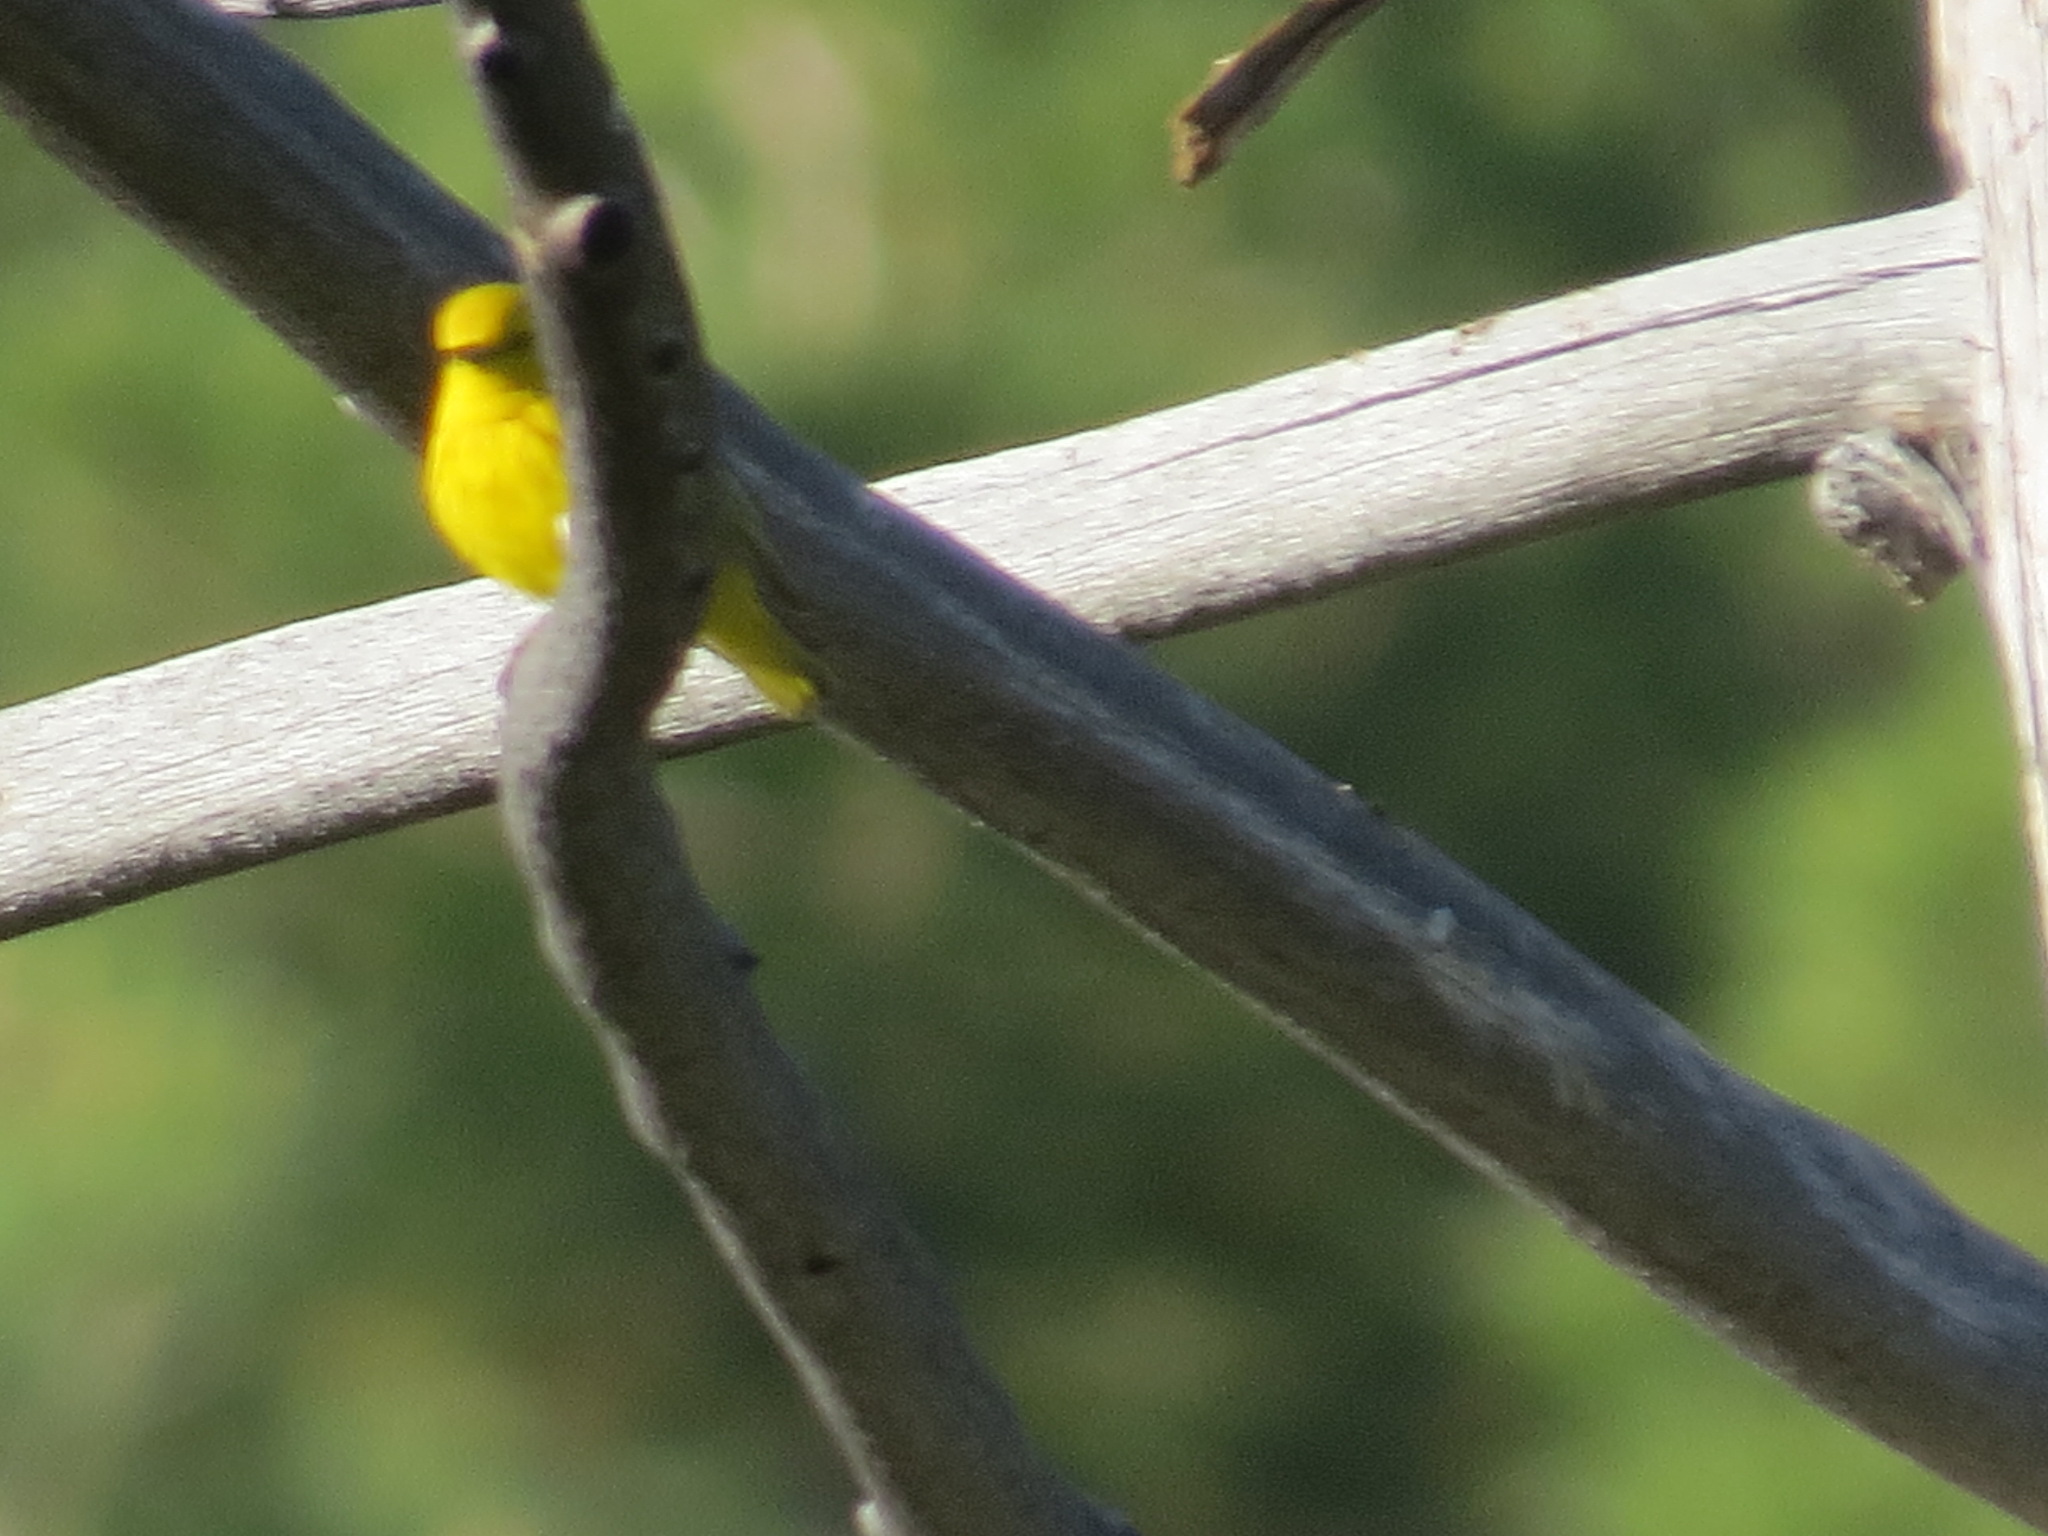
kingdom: Animalia
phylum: Chordata
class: Aves
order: Passeriformes
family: Parulidae
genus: Setophaga
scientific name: Setophaga petechia
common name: Yellow warbler
